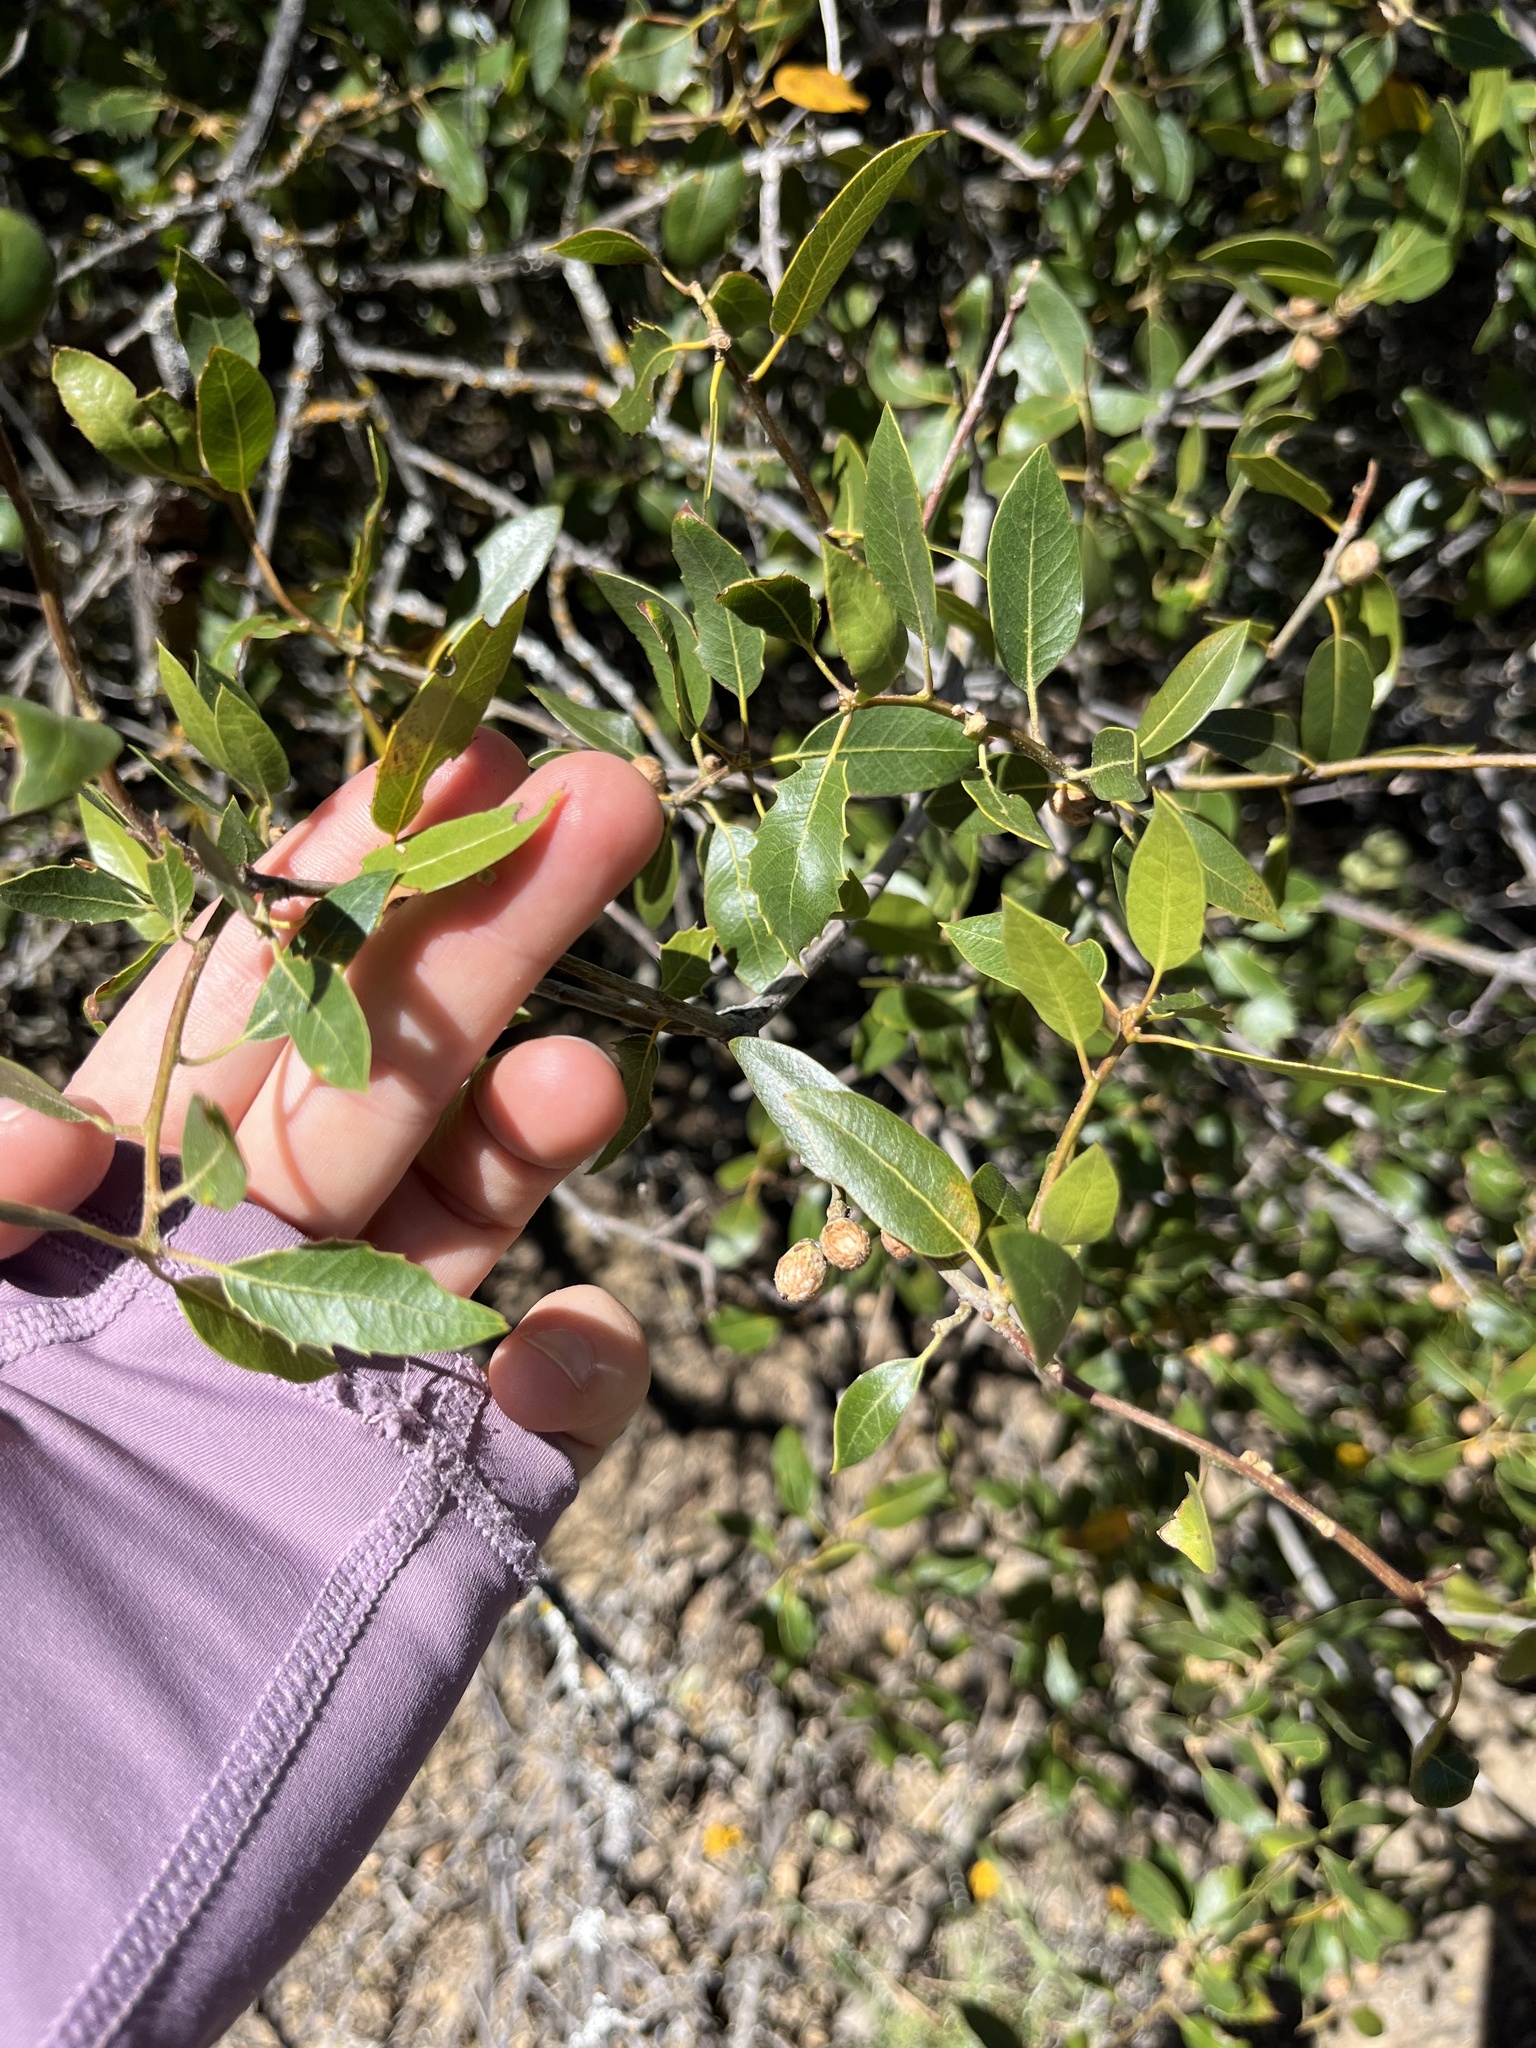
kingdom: Plantae
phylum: Tracheophyta
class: Magnoliopsida
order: Fagales
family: Fagaceae
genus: Quercus
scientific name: Quercus wislizeni
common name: Interior live oak
